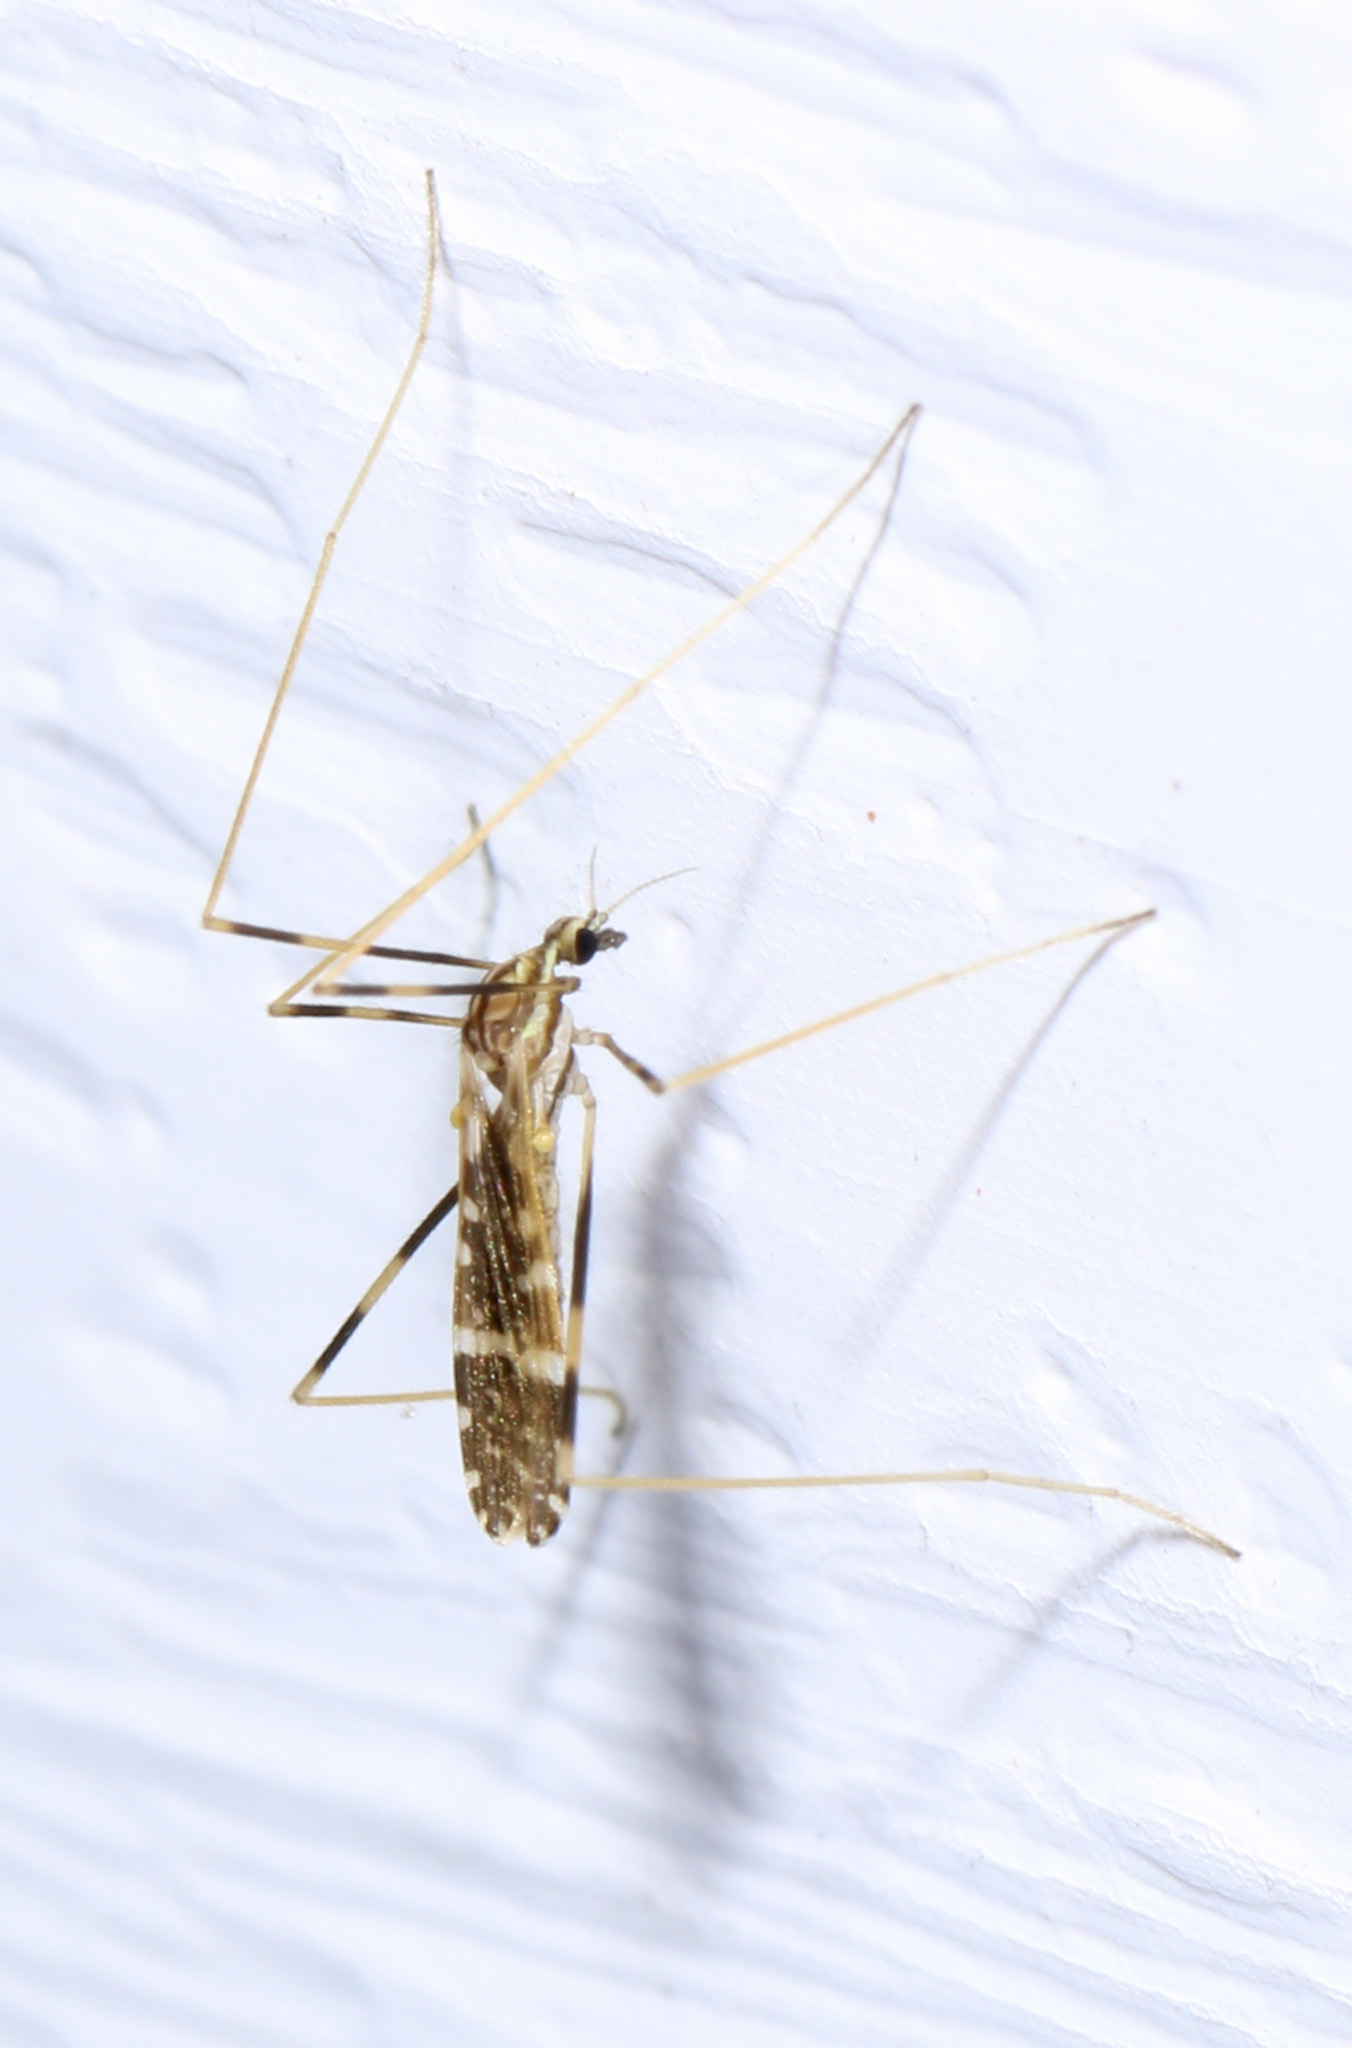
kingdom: Animalia
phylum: Arthropoda
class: Insecta
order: Diptera
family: Limoniidae
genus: Erioptera
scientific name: Erioptera caliptera
